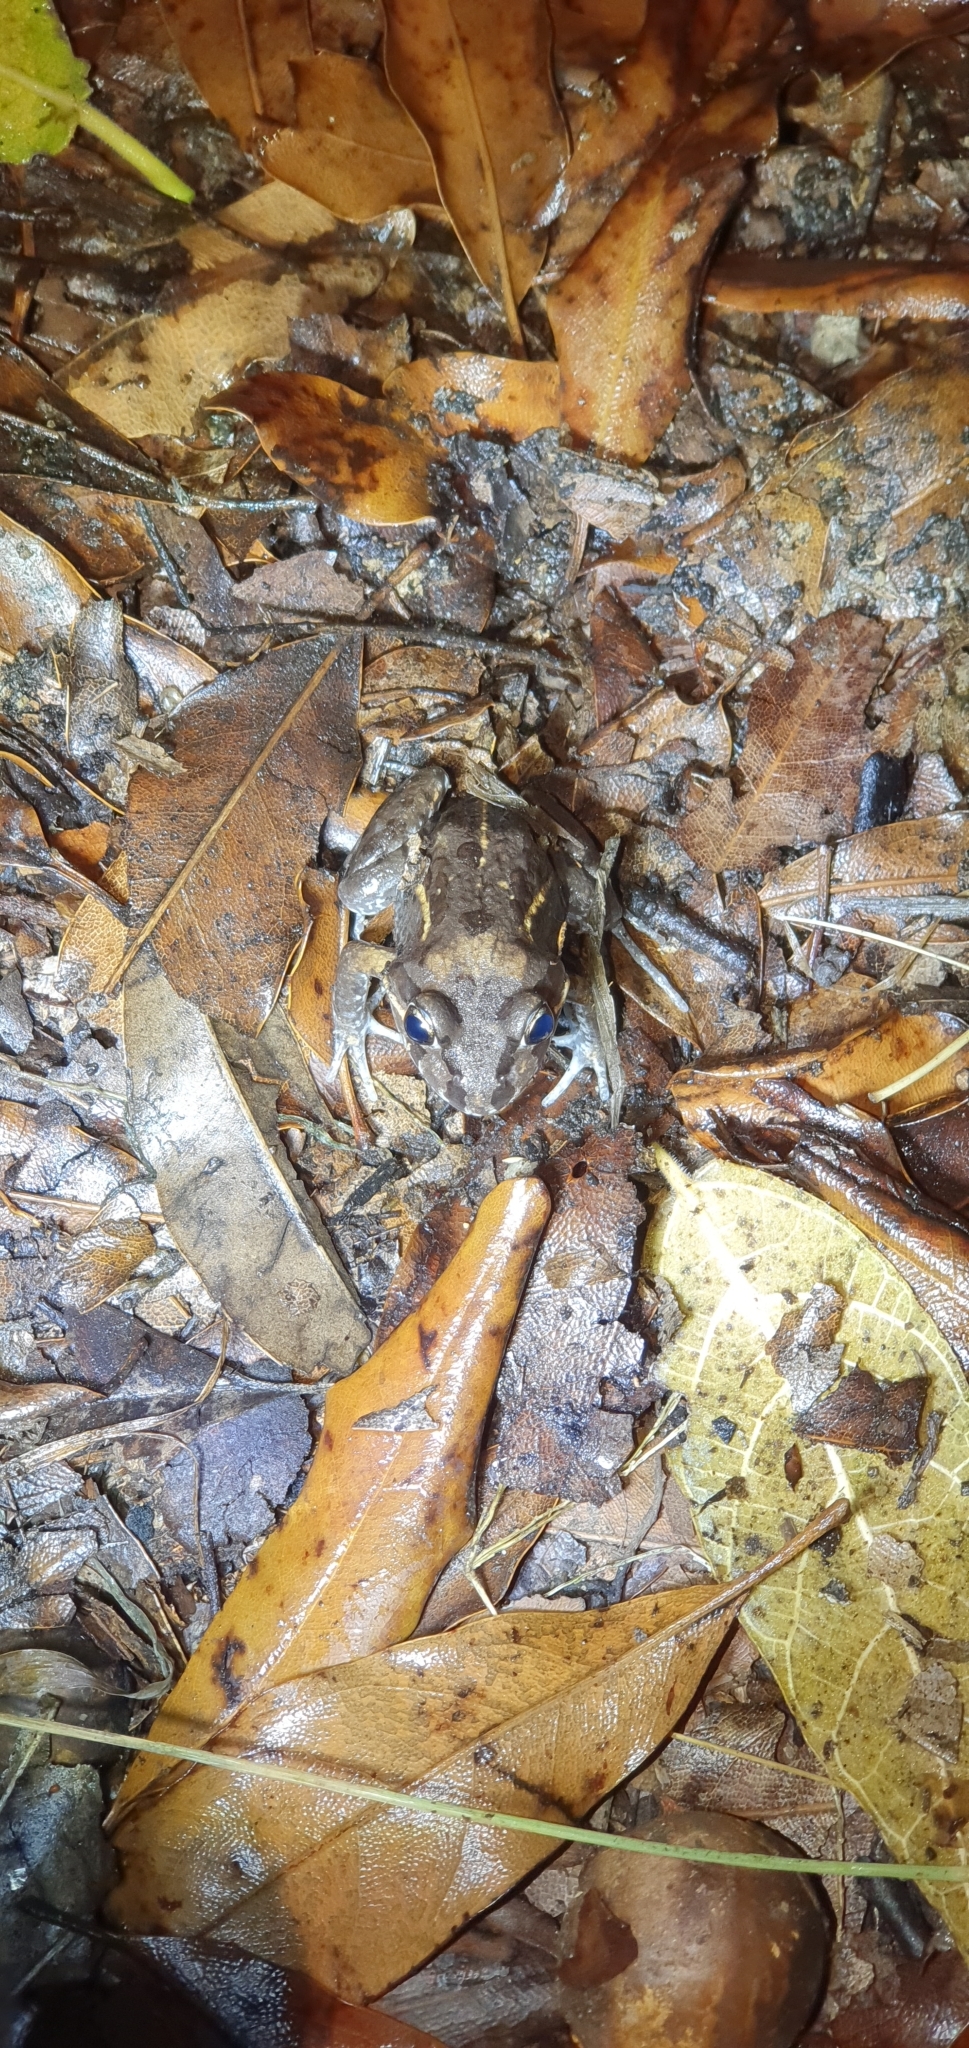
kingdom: Animalia
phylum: Chordata
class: Amphibia
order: Anura
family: Limnodynastidae
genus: Limnodynastes
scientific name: Limnodynastes salmini
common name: Salmon-striped frog
